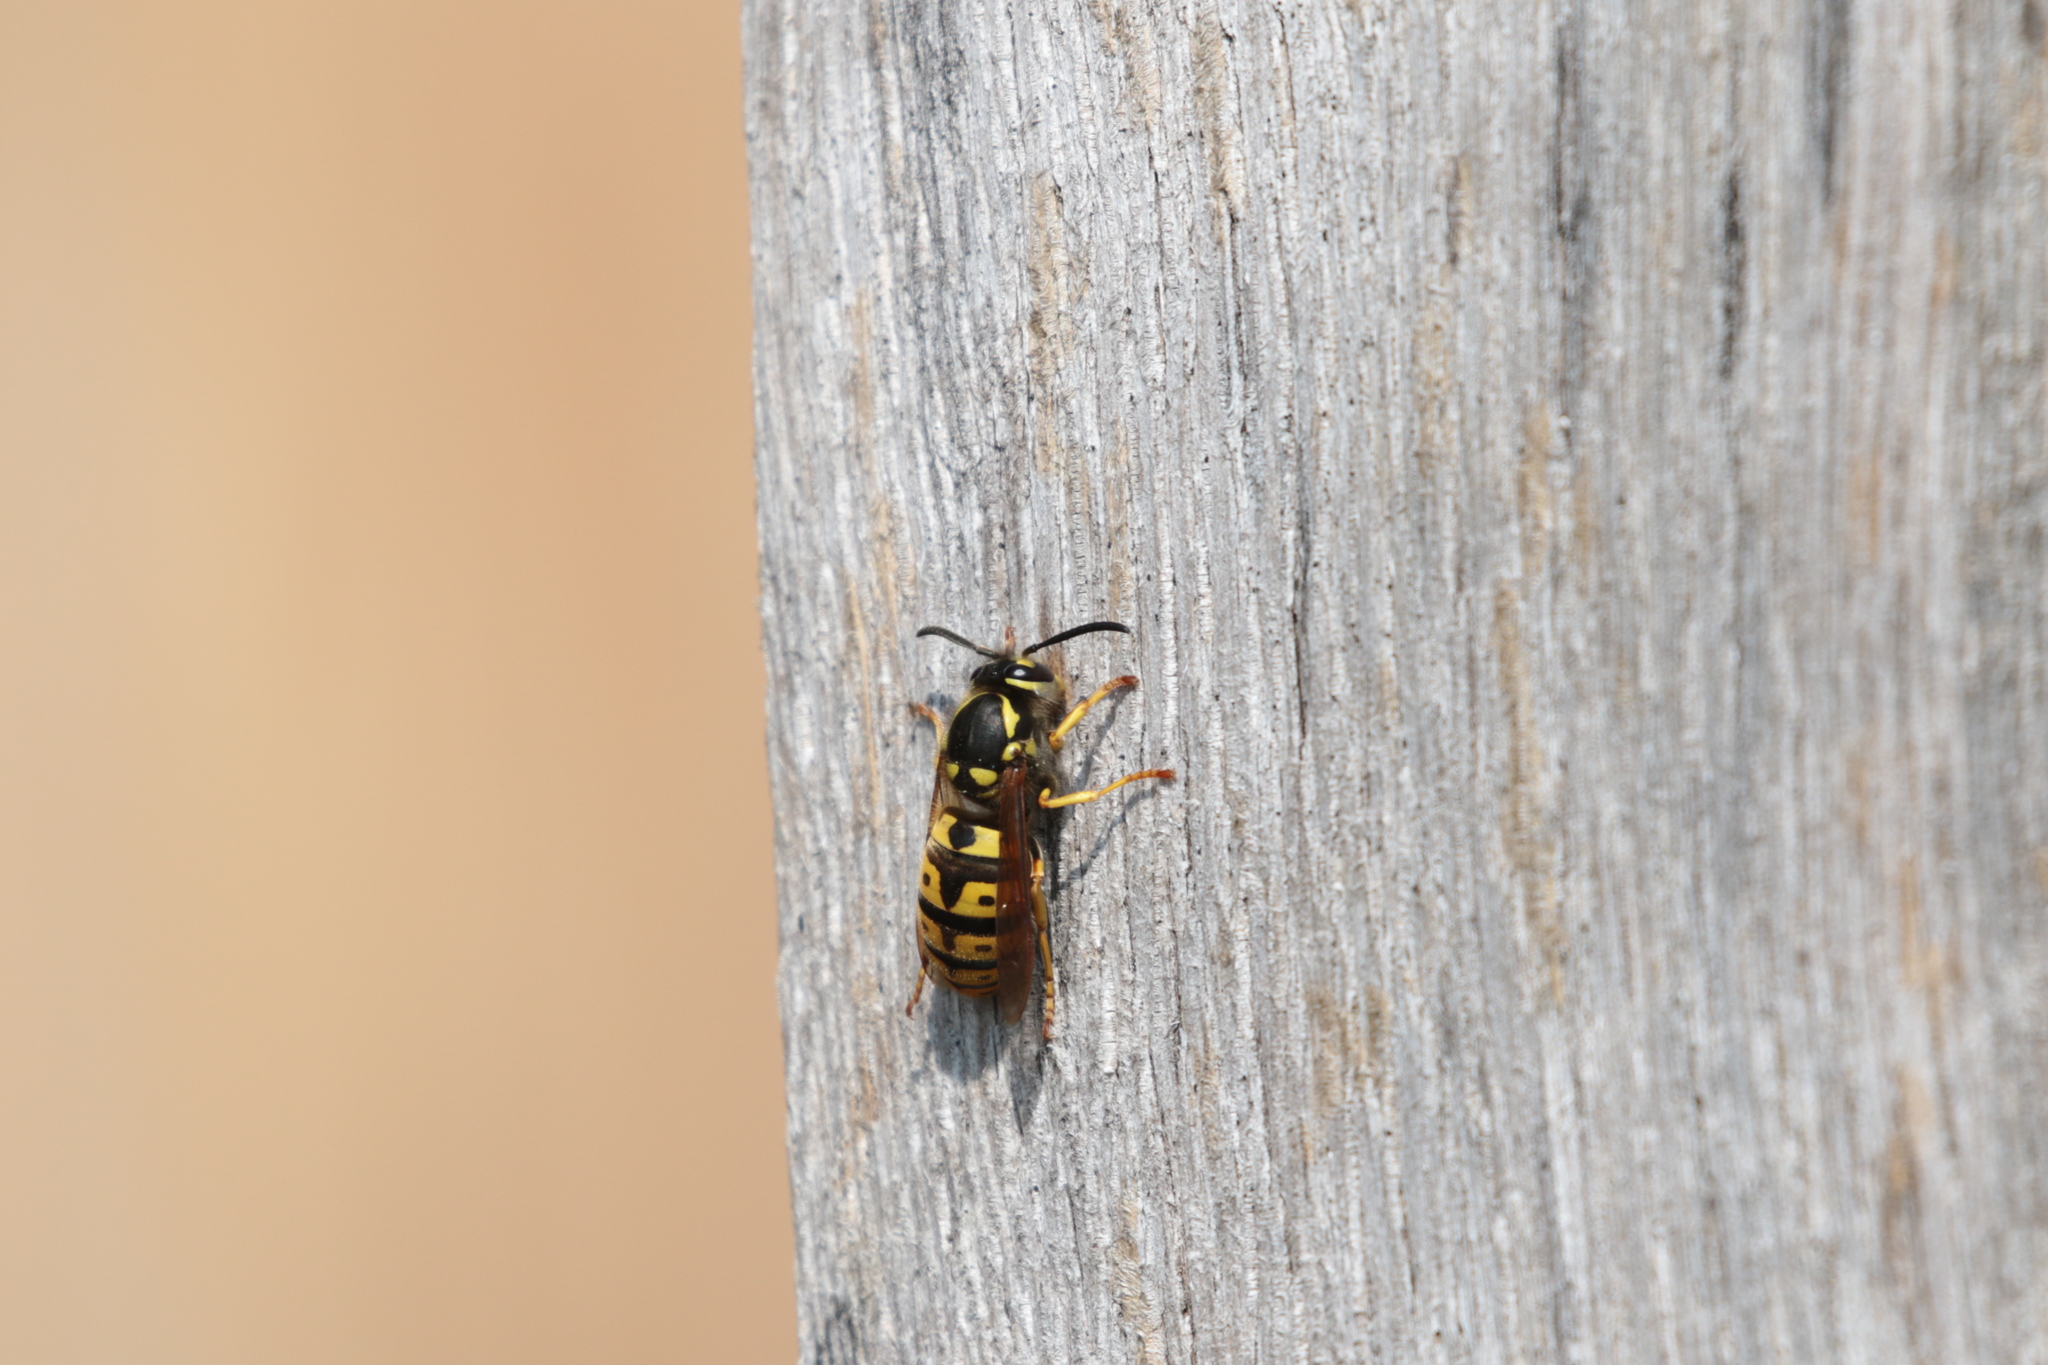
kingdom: Animalia
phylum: Arthropoda
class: Insecta
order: Hymenoptera
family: Vespidae
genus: Vespula
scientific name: Vespula germanica
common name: German wasp
